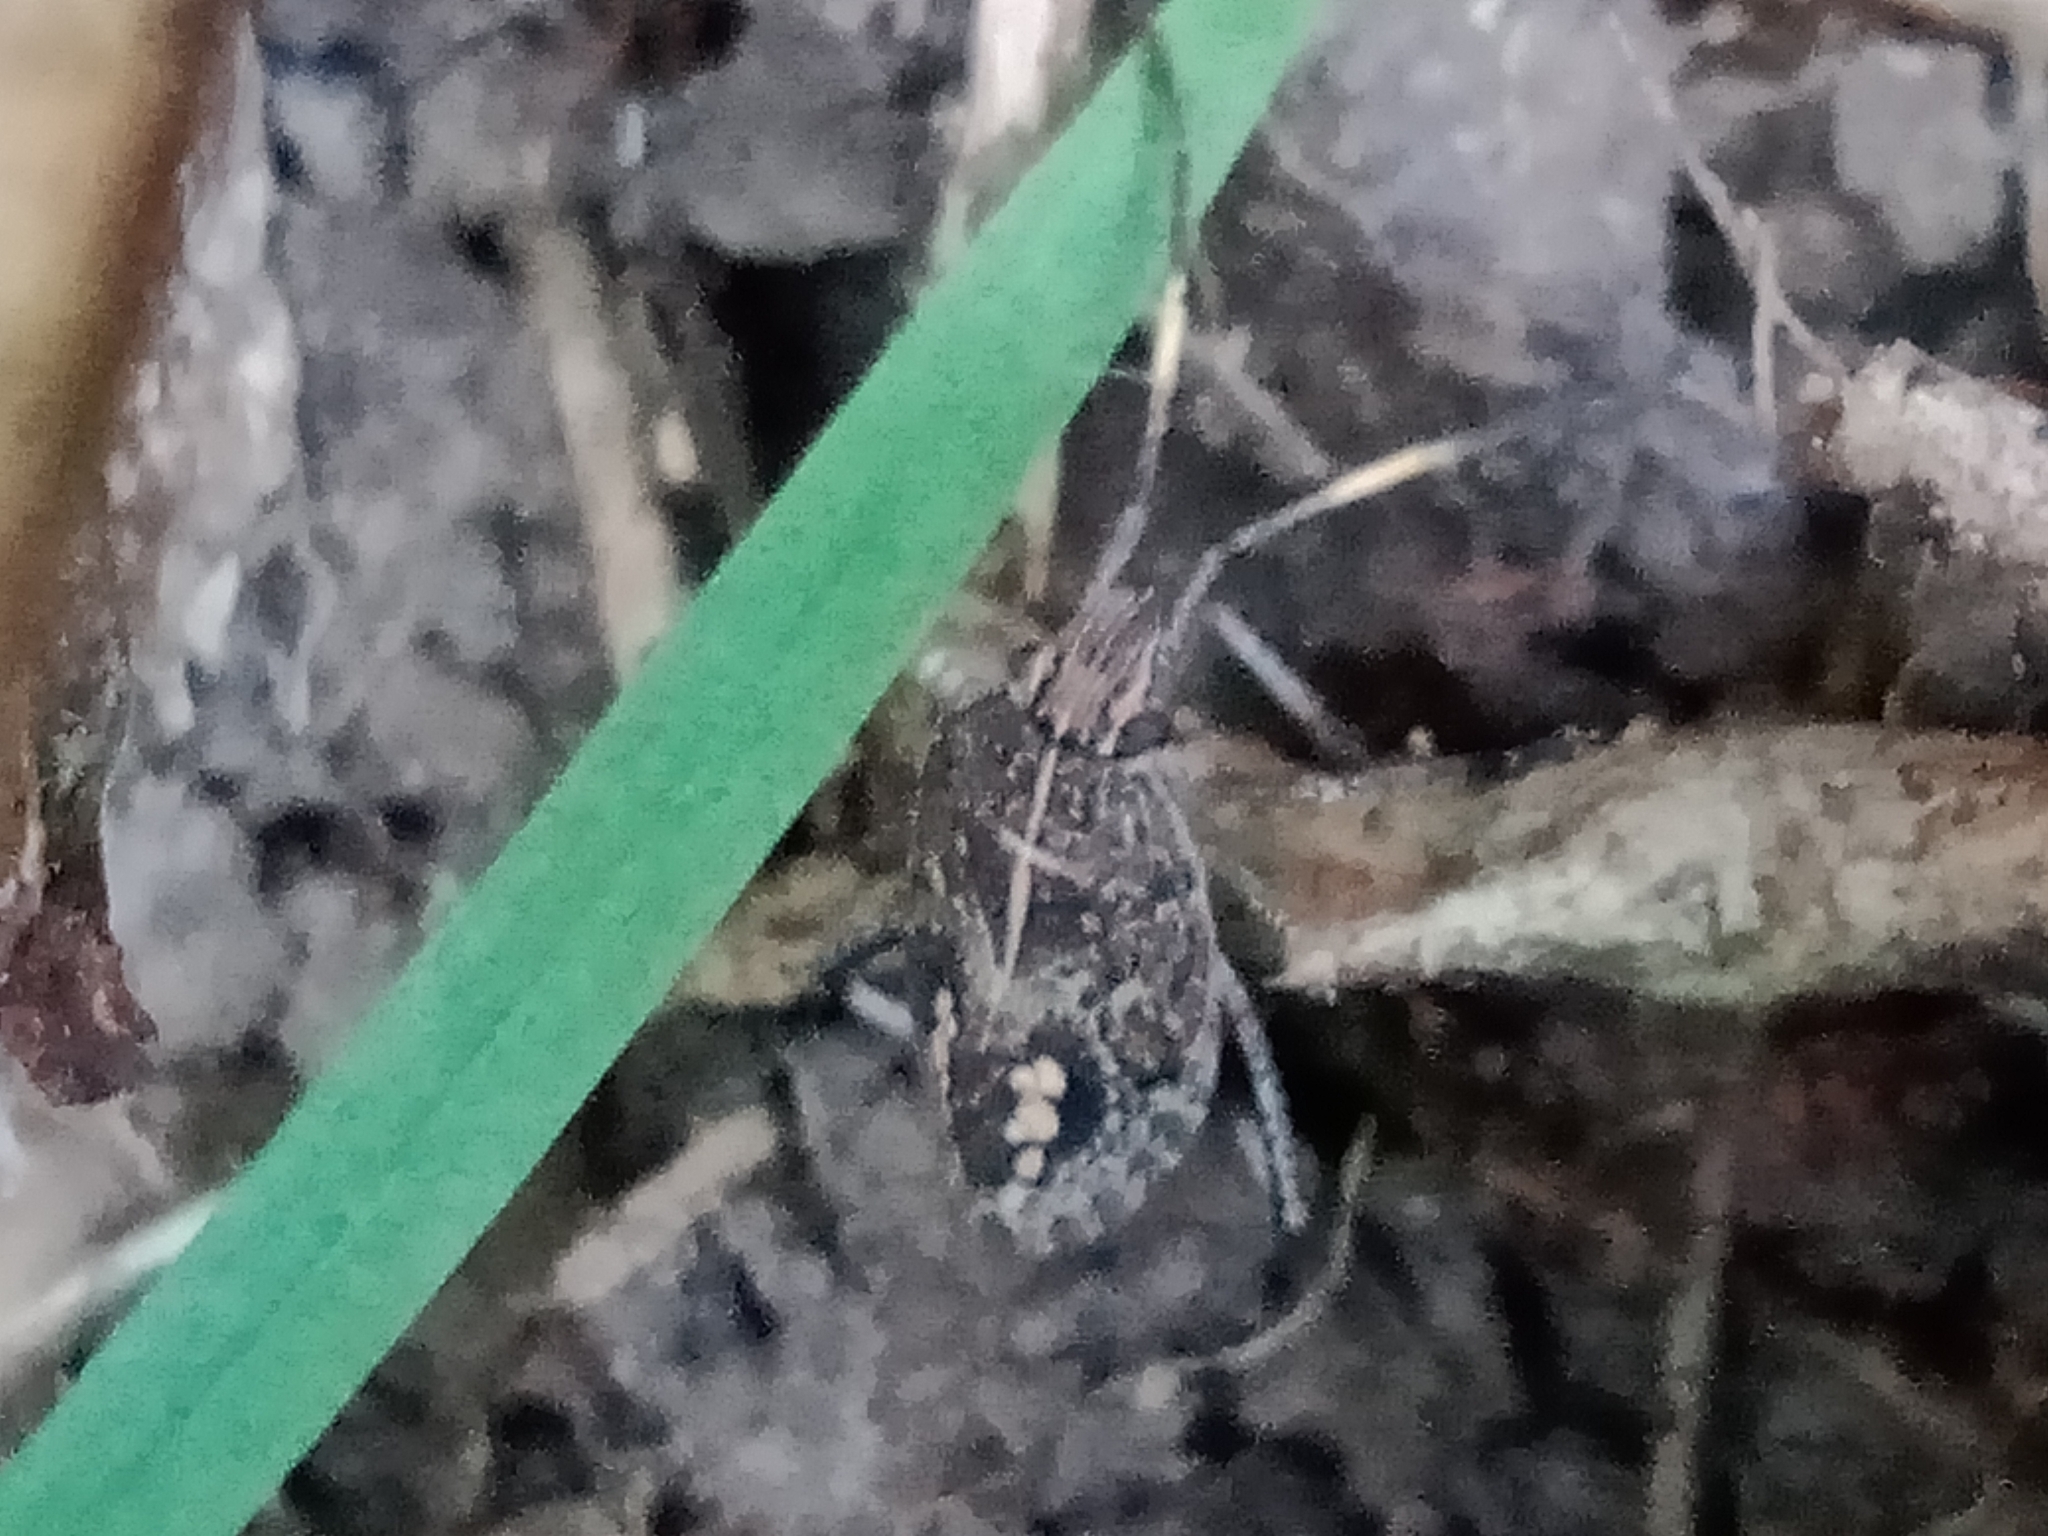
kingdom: Animalia
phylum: Arthropoda
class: Insecta
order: Hemiptera
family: Pentatomidae
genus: Poecilometis
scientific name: Poecilometis
